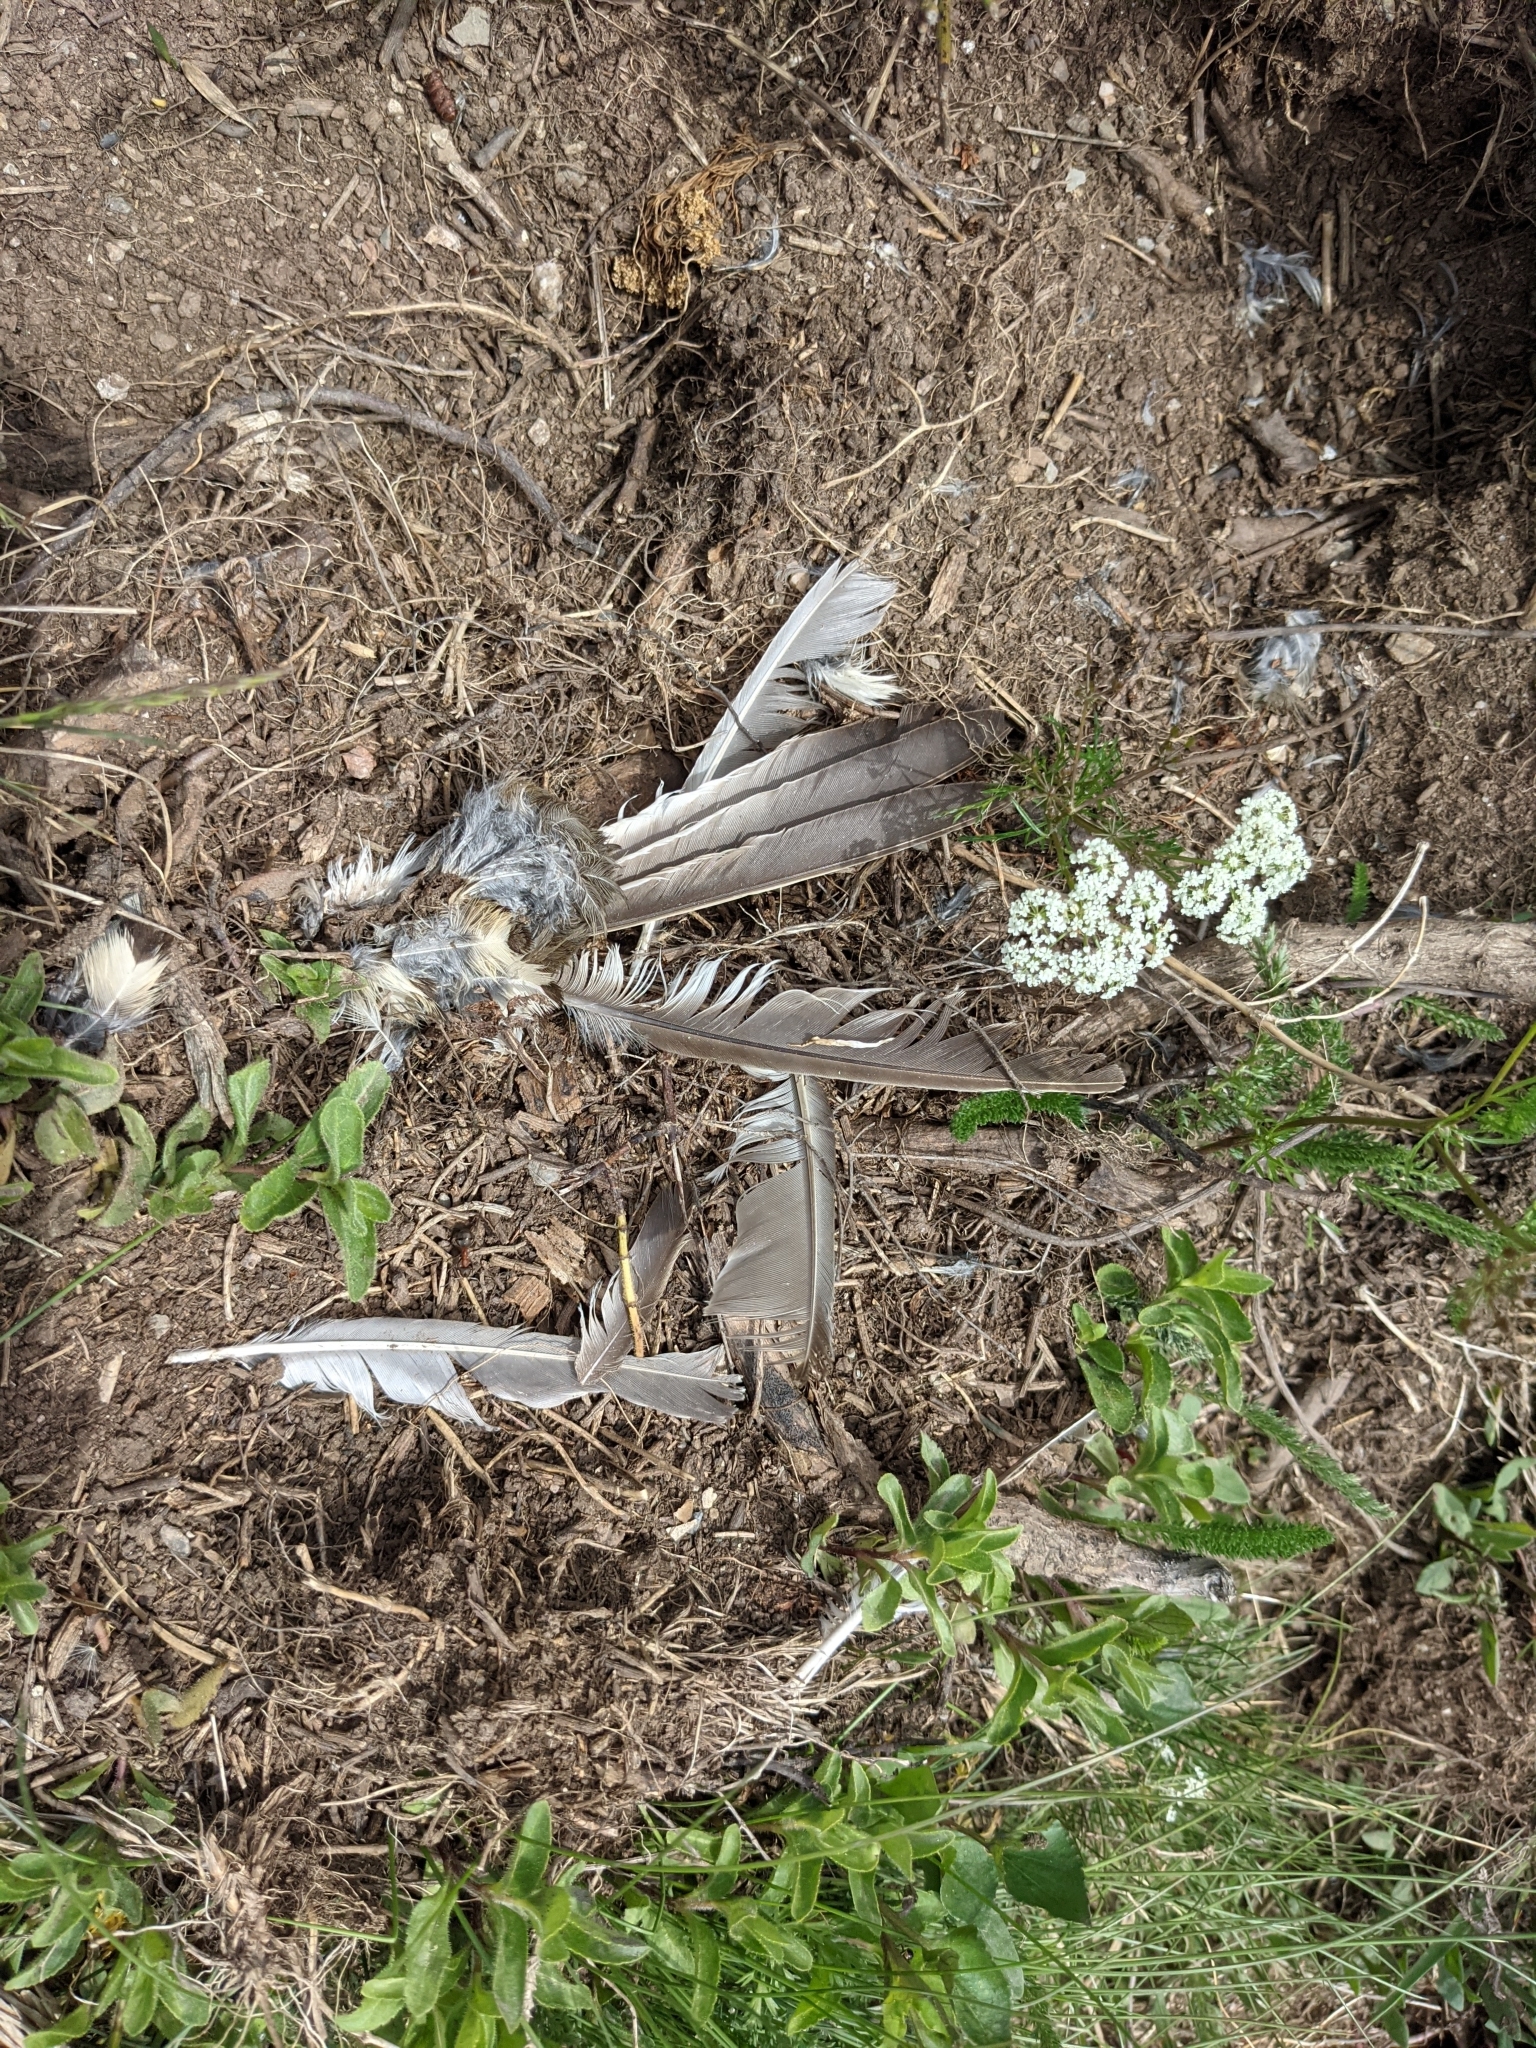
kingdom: Animalia
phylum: Chordata
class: Aves
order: Passeriformes
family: Turdidae
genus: Turdus
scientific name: Turdus viscivorus
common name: Mistle thrush
